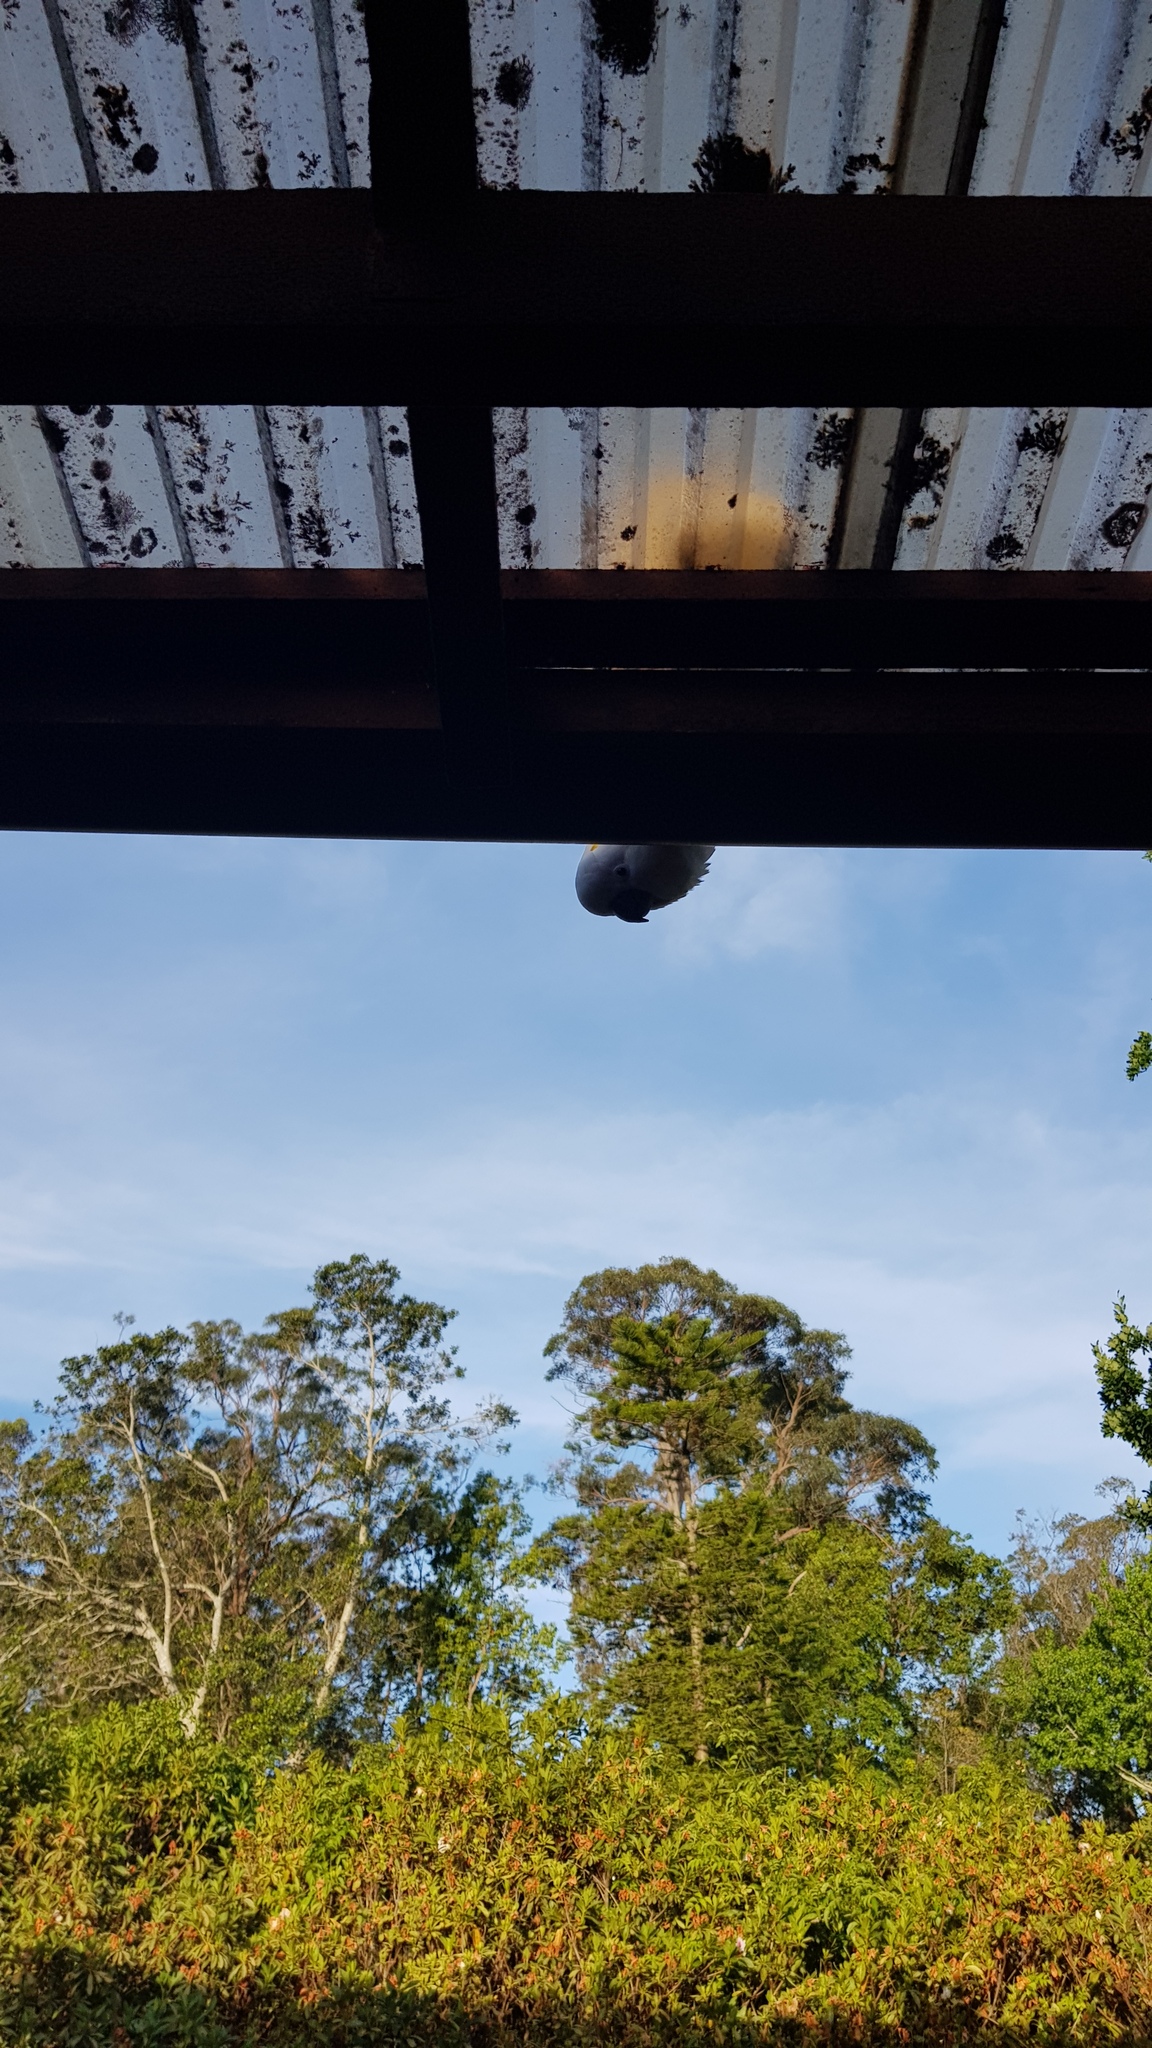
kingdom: Animalia
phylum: Chordata
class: Aves
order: Psittaciformes
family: Psittacidae
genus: Cacatua
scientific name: Cacatua galerita
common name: Sulphur-crested cockatoo
